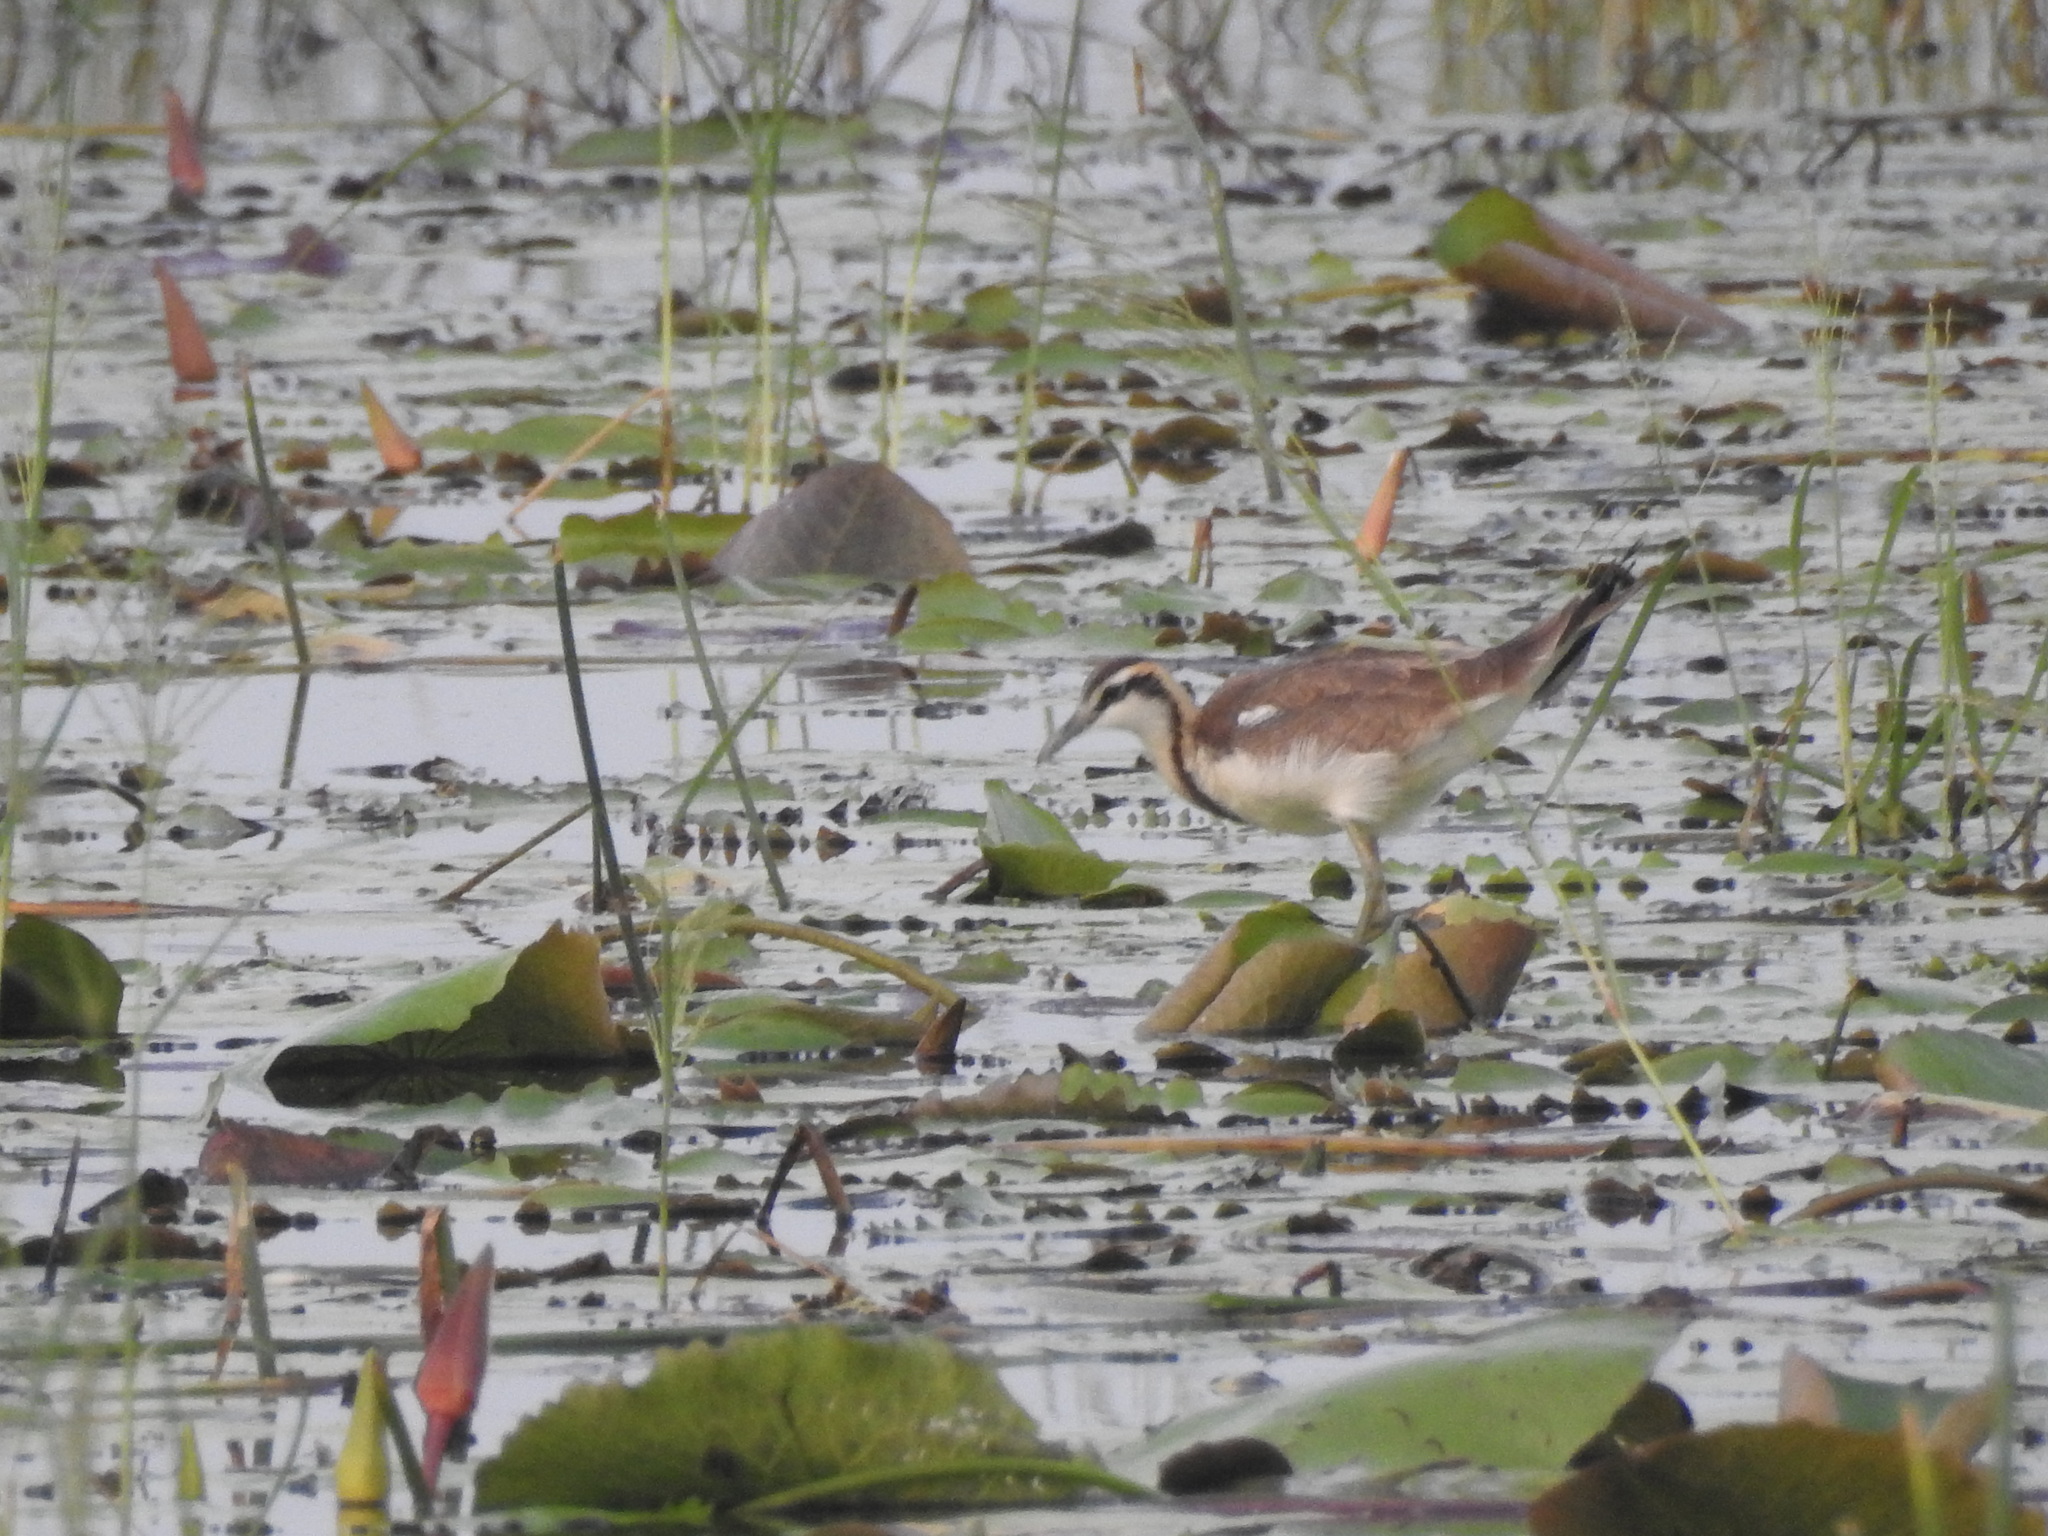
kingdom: Animalia
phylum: Chordata
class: Aves
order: Charadriiformes
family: Jacanidae
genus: Hydrophasianus
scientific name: Hydrophasianus chirurgus
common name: Pheasant-tailed jacana
